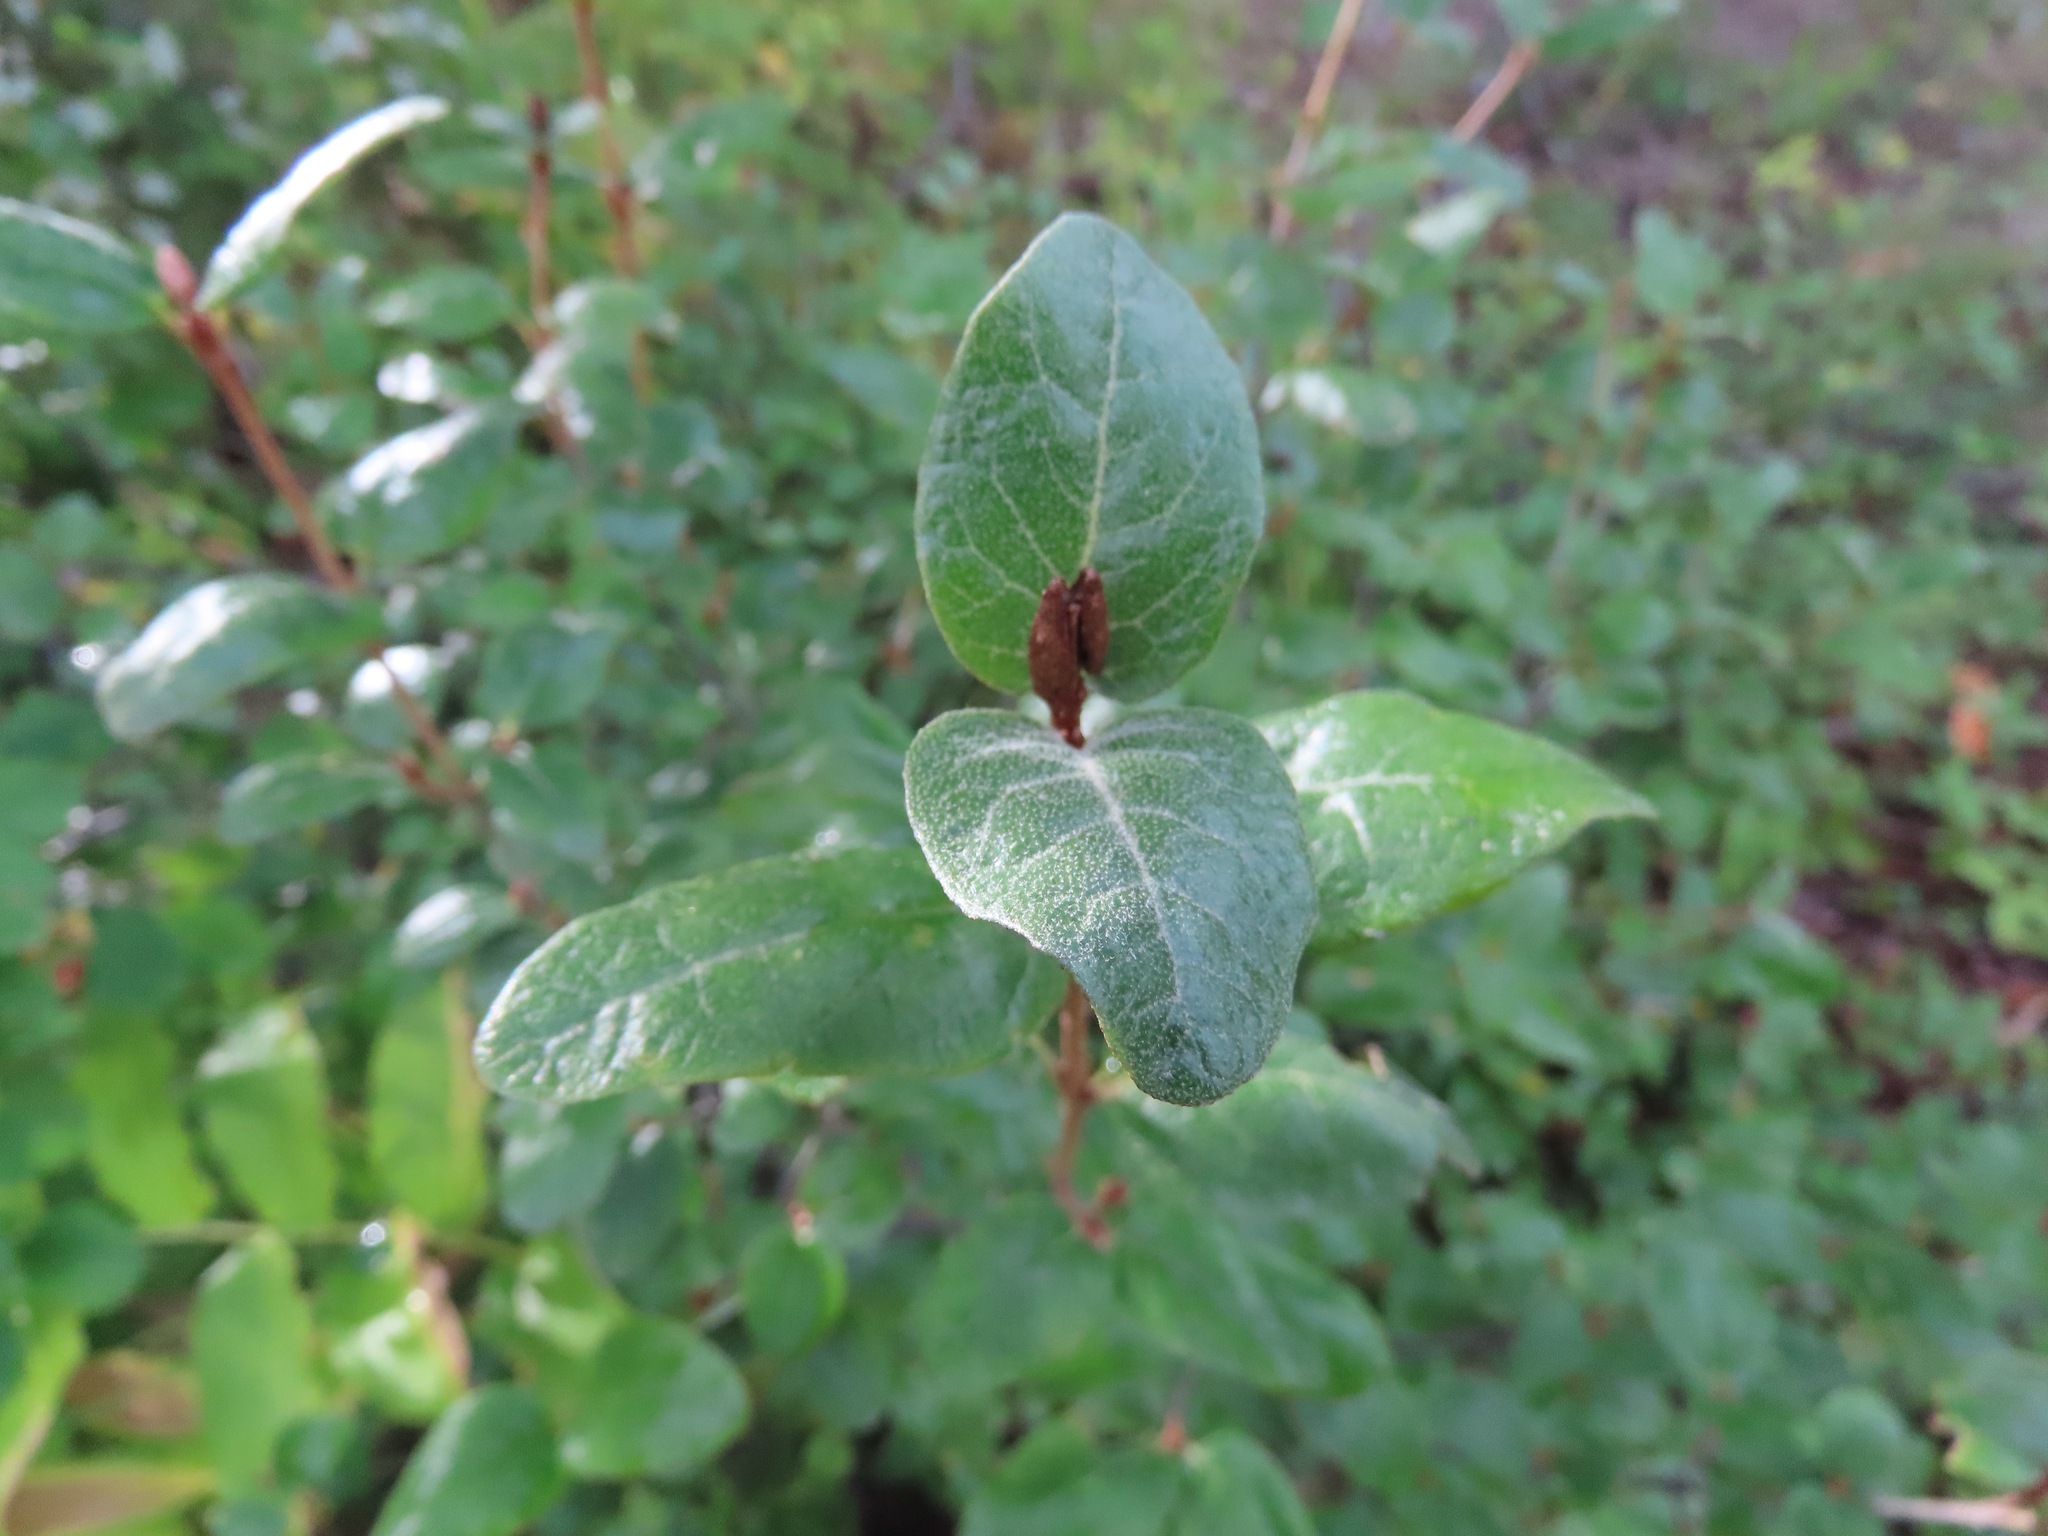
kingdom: Plantae
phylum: Tracheophyta
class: Magnoliopsida
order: Rosales
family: Elaeagnaceae
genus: Shepherdia
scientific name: Shepherdia canadensis
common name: Soapberry
